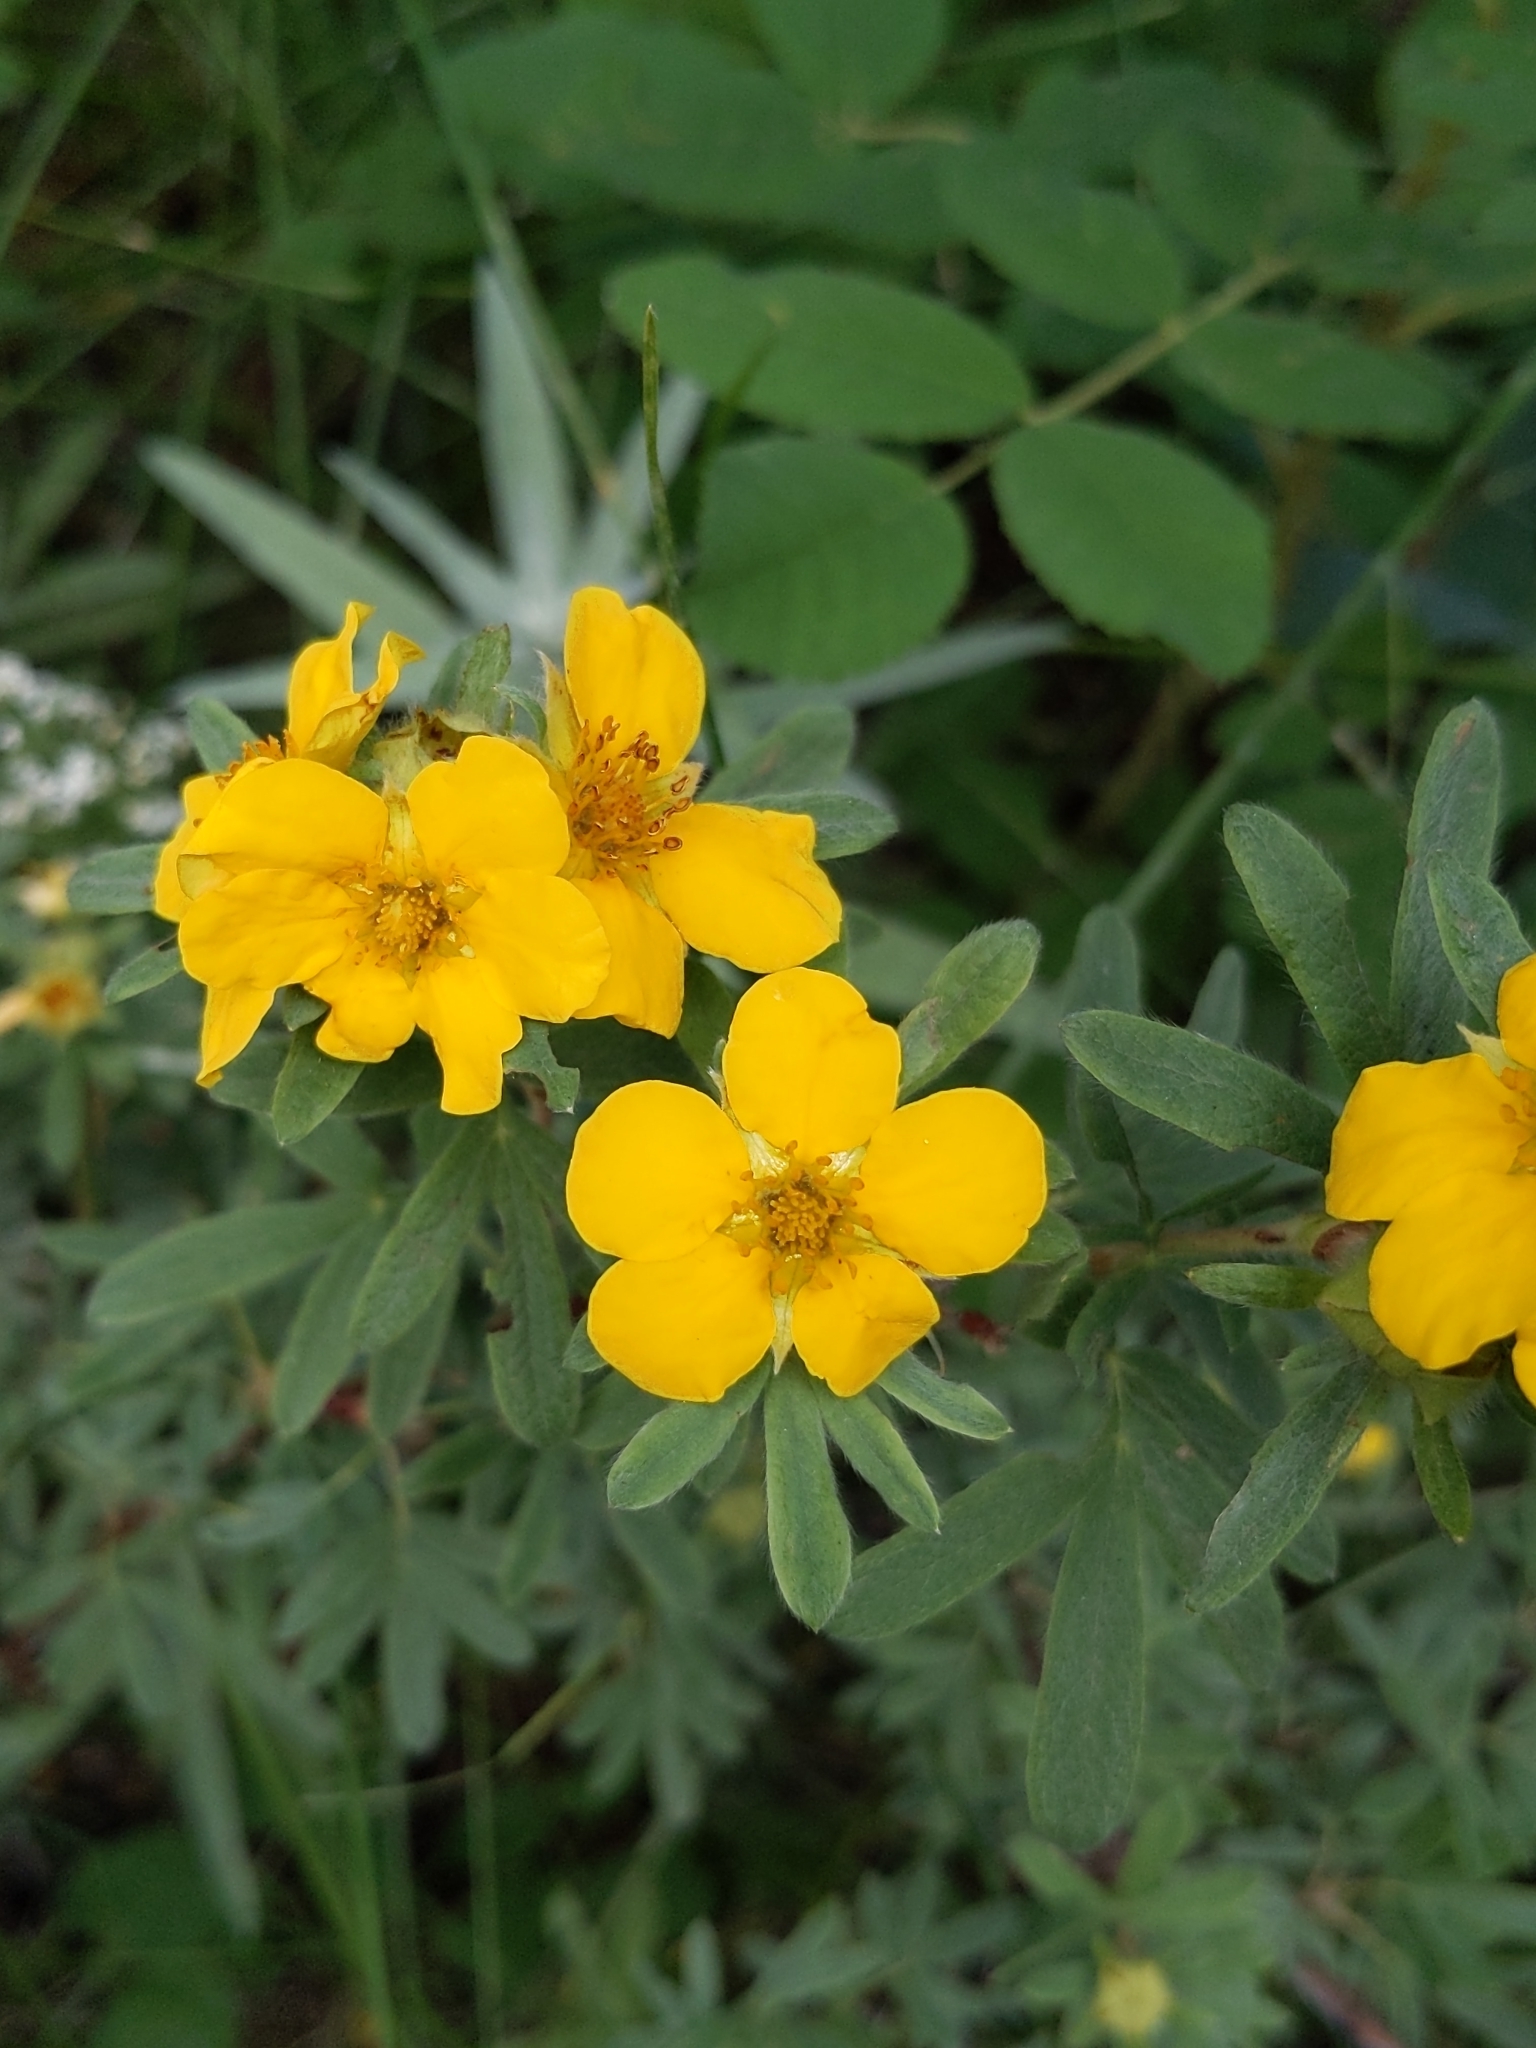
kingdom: Plantae
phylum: Tracheophyta
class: Magnoliopsida
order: Rosales
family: Rosaceae
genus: Dasiphora
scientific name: Dasiphora fruticosa
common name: Shrubby cinquefoil
